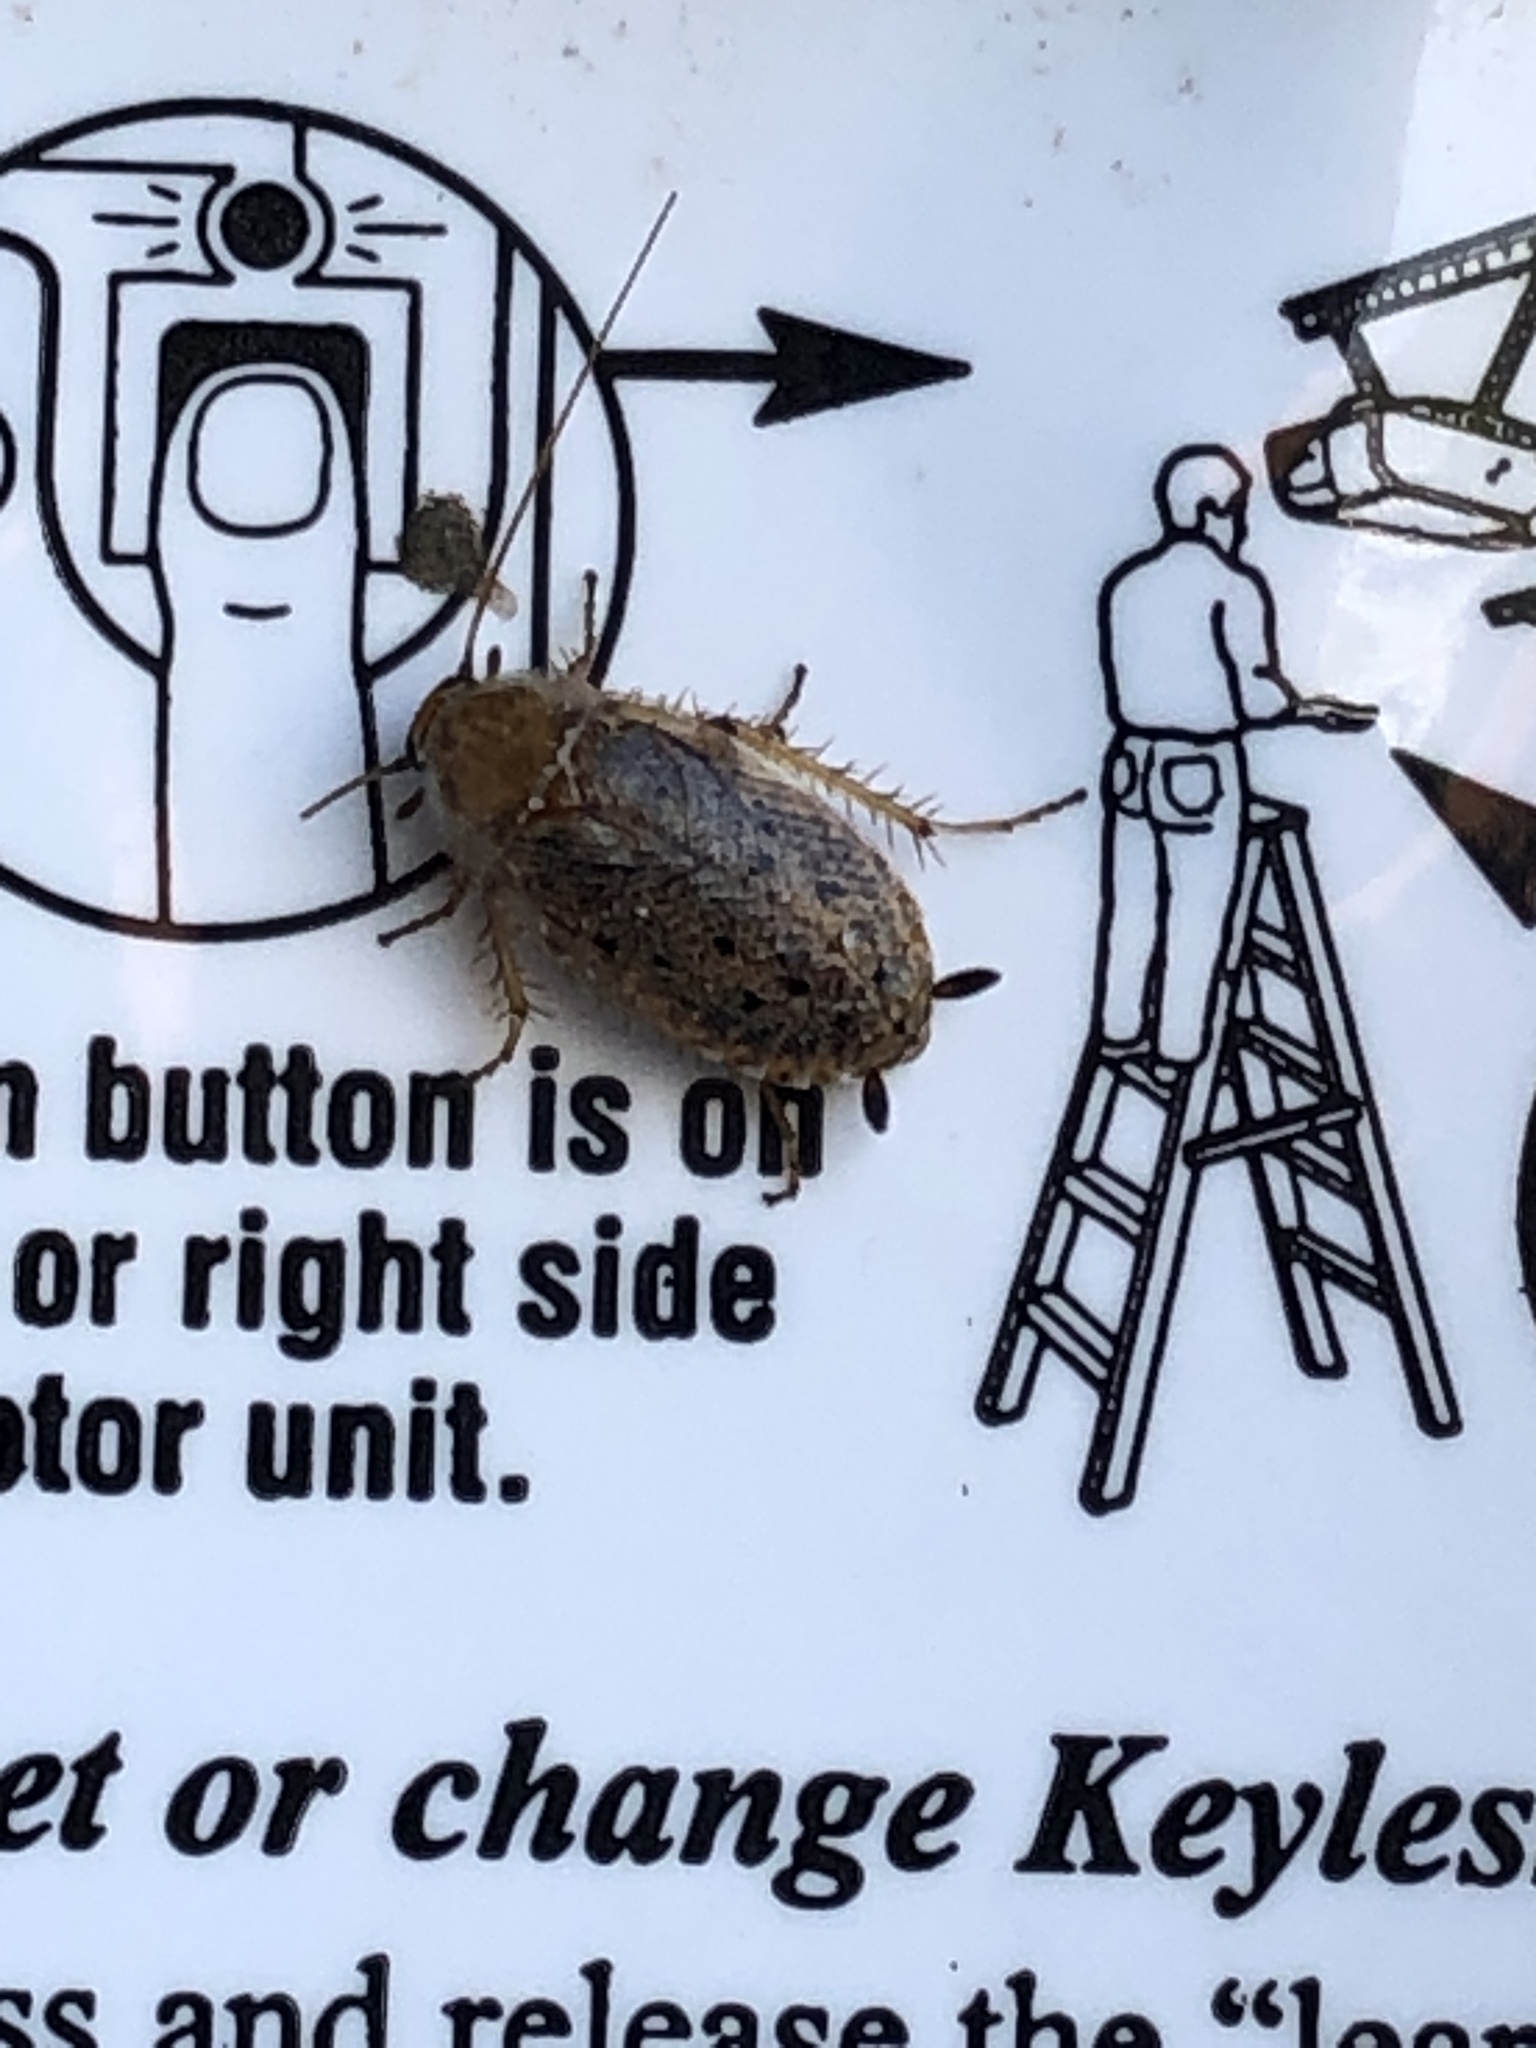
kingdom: Animalia
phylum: Arthropoda
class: Insecta
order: Blattodea
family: Ectobiidae
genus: Ectobius
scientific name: Ectobius lapponicus
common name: Dusky cockroach
